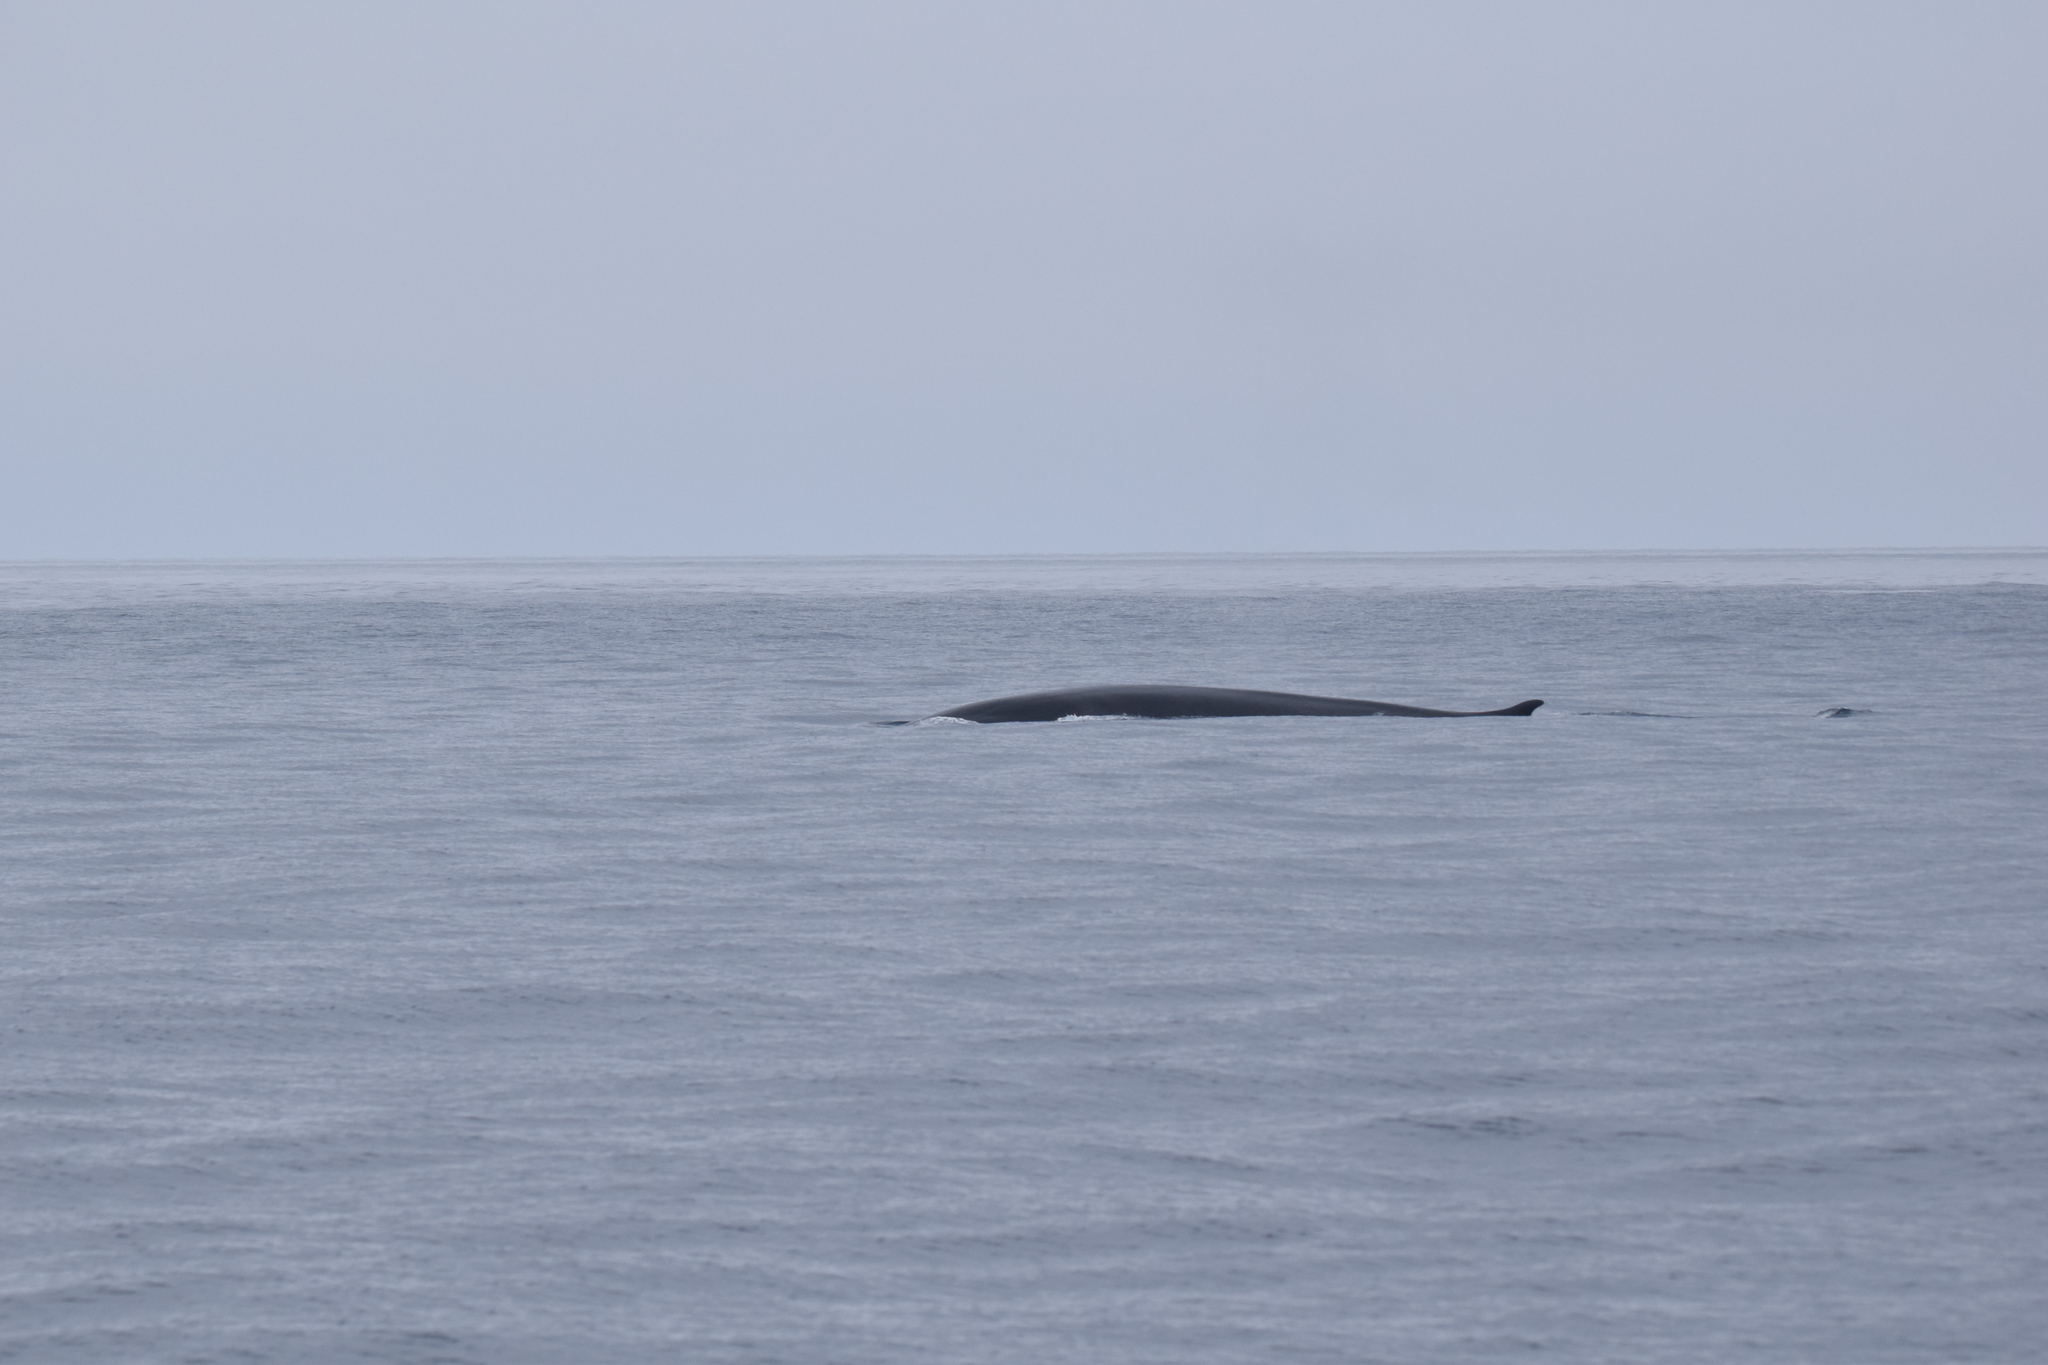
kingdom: Animalia
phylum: Chordata
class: Mammalia
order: Cetacea
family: Balaenopteridae
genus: Balaenoptera
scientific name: Balaenoptera physalus
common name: Fin whale
